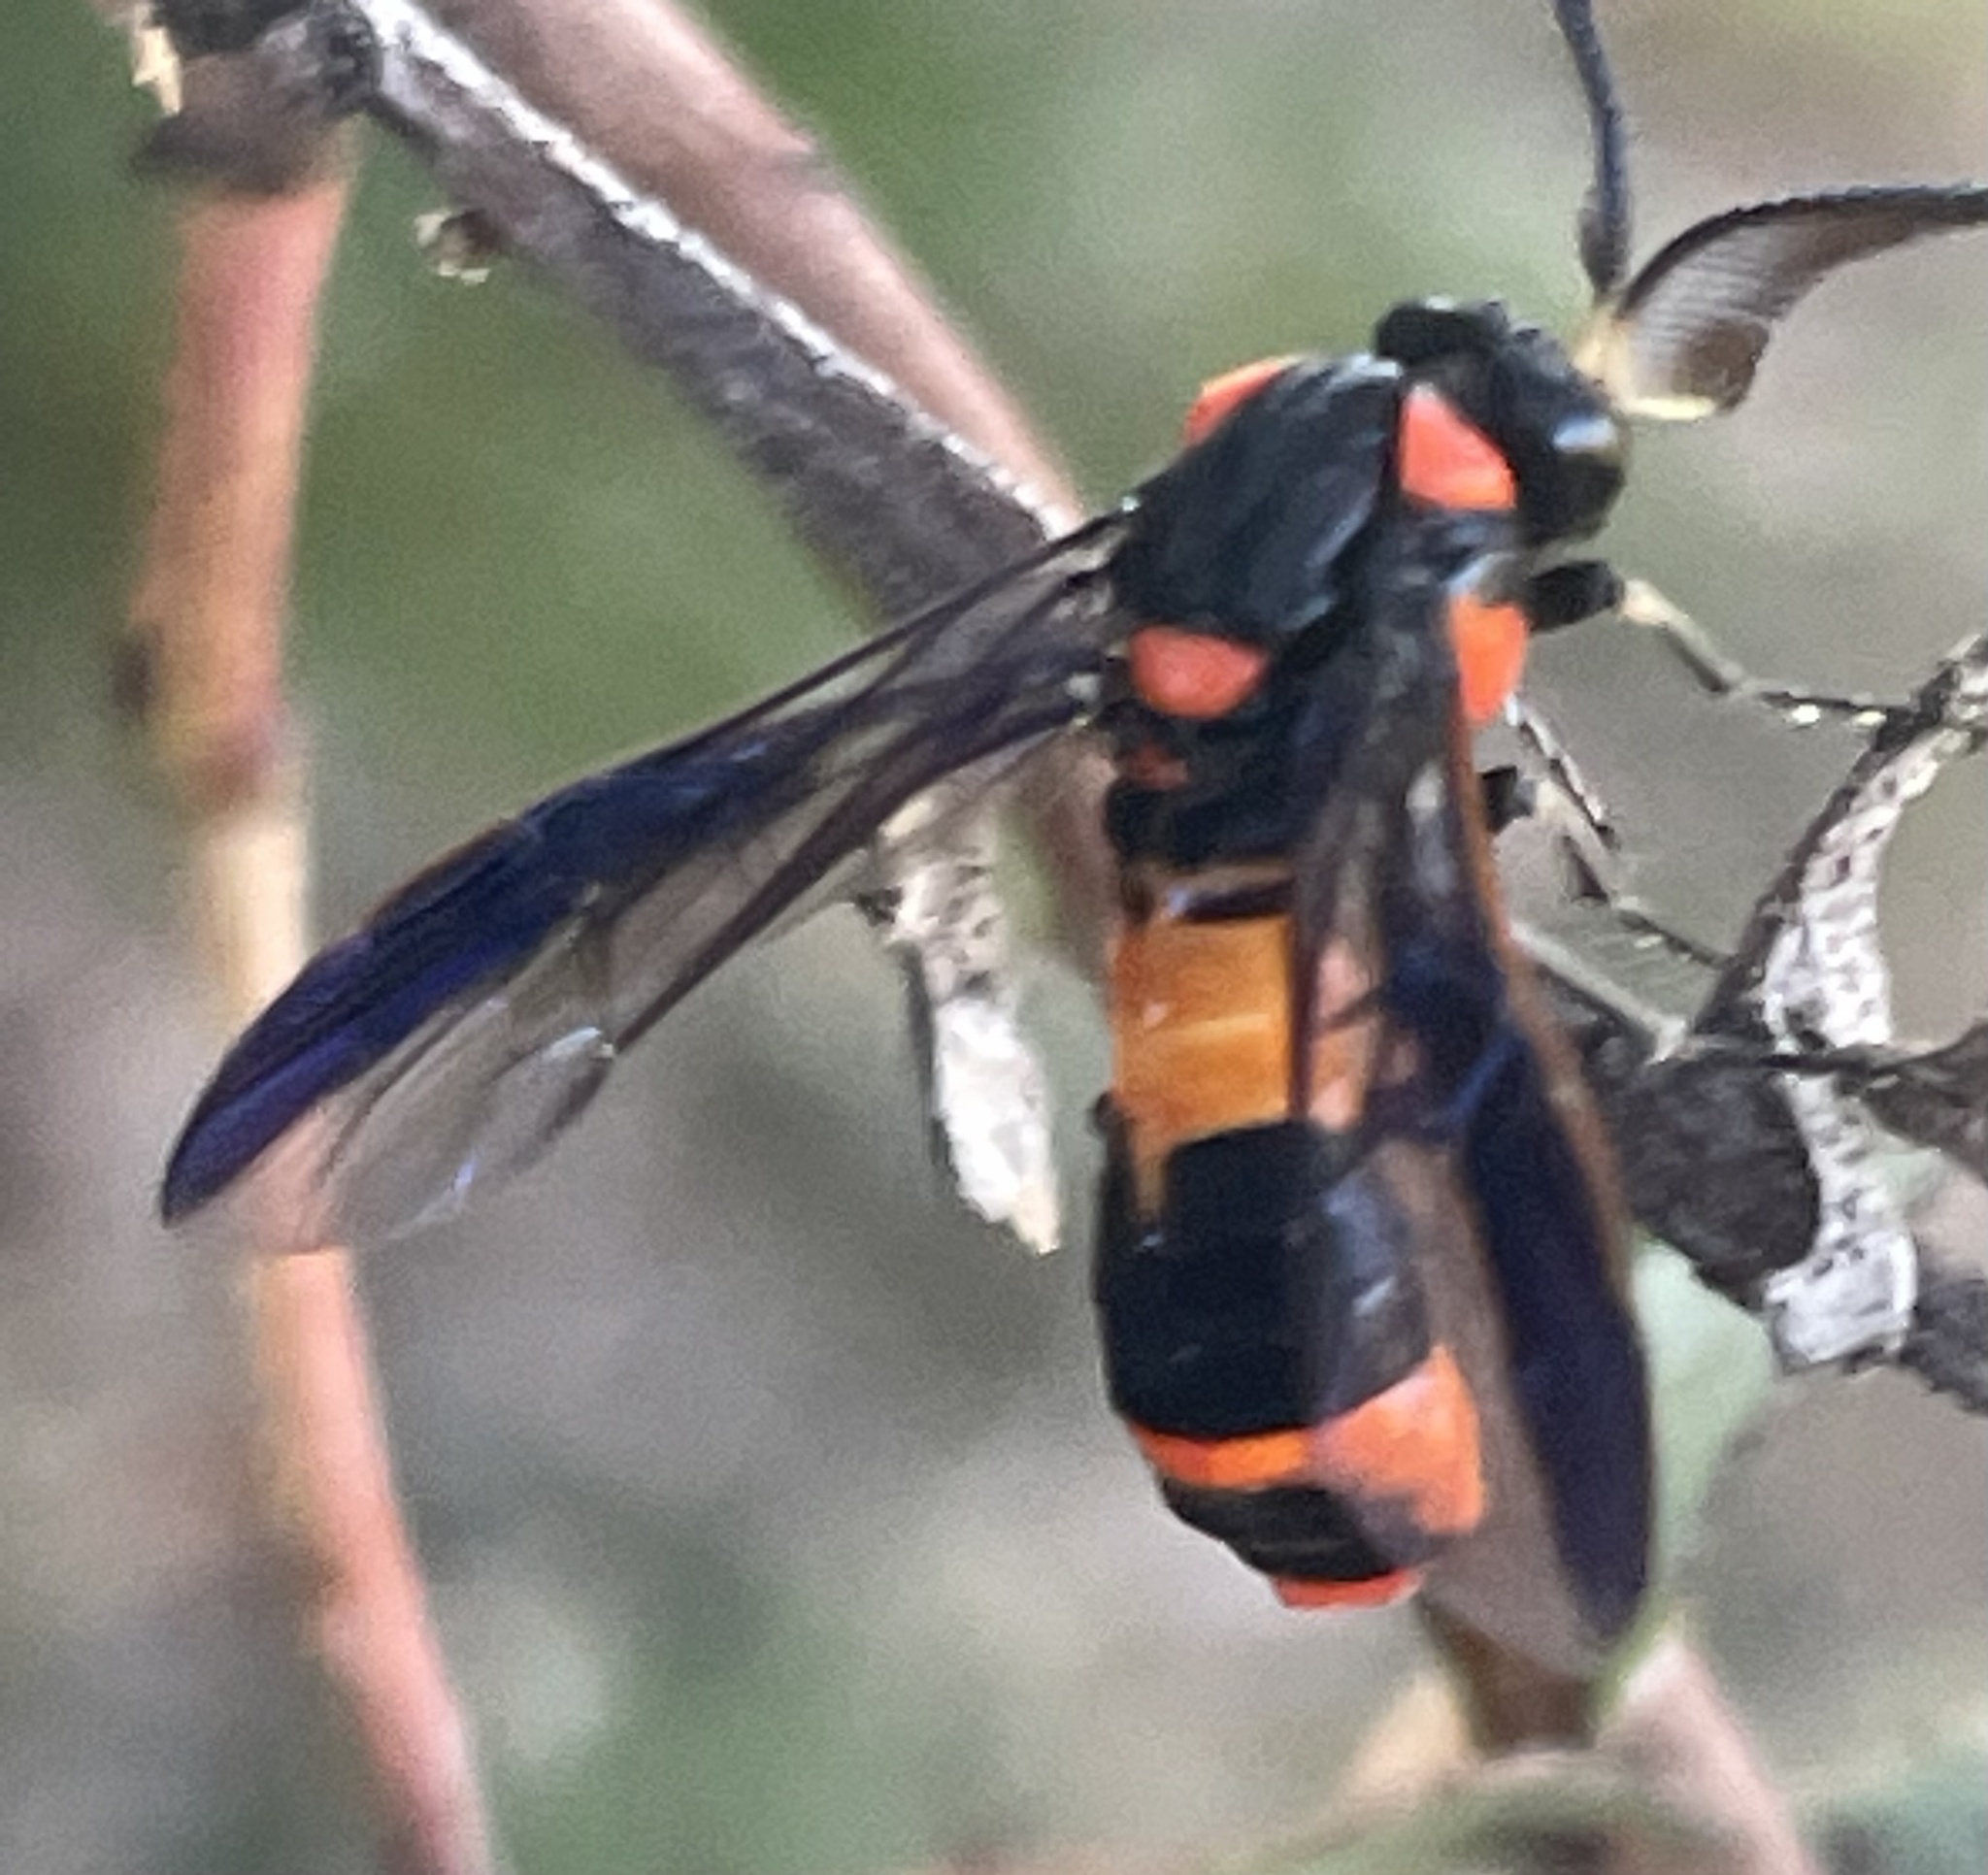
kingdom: Animalia
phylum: Arthropoda
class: Insecta
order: Hymenoptera
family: Pergidae
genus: Pterygophorus
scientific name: Pterygophorus
